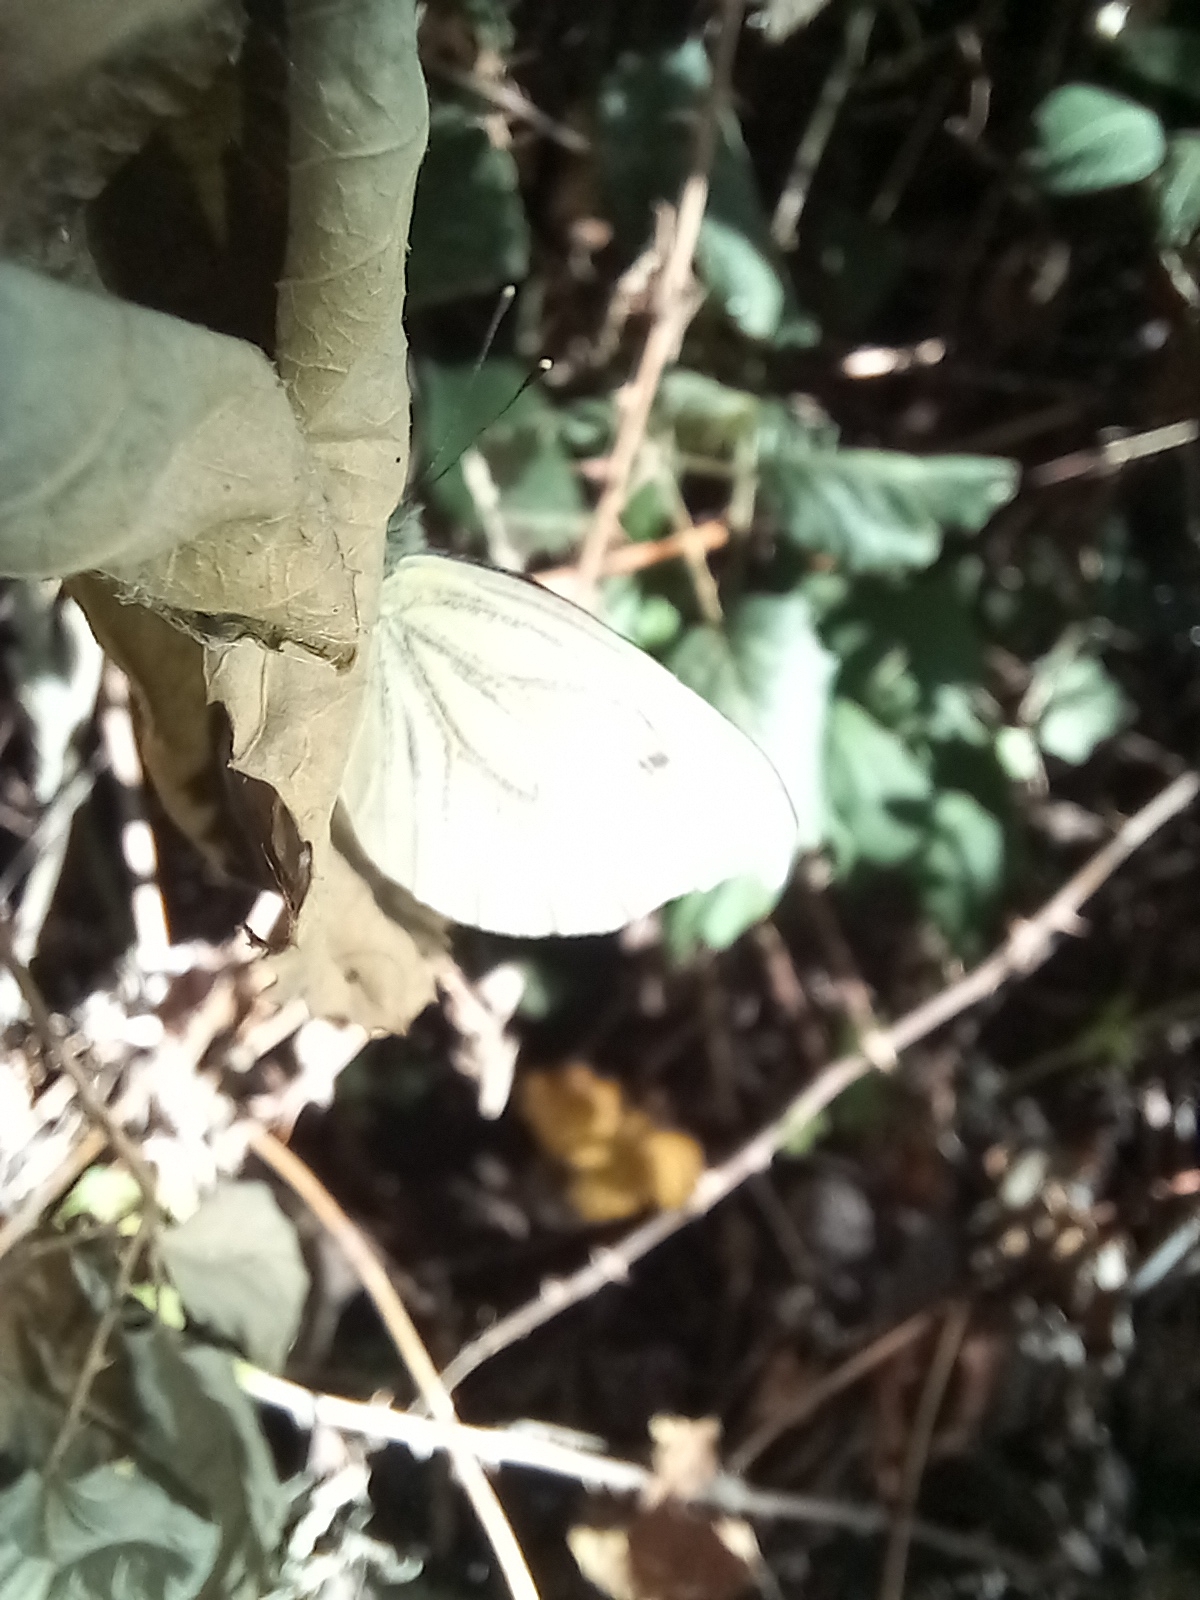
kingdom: Animalia
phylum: Arthropoda
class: Insecta
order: Lepidoptera
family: Pieridae
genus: Pieris
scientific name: Pieris napi
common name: Green-veined white
